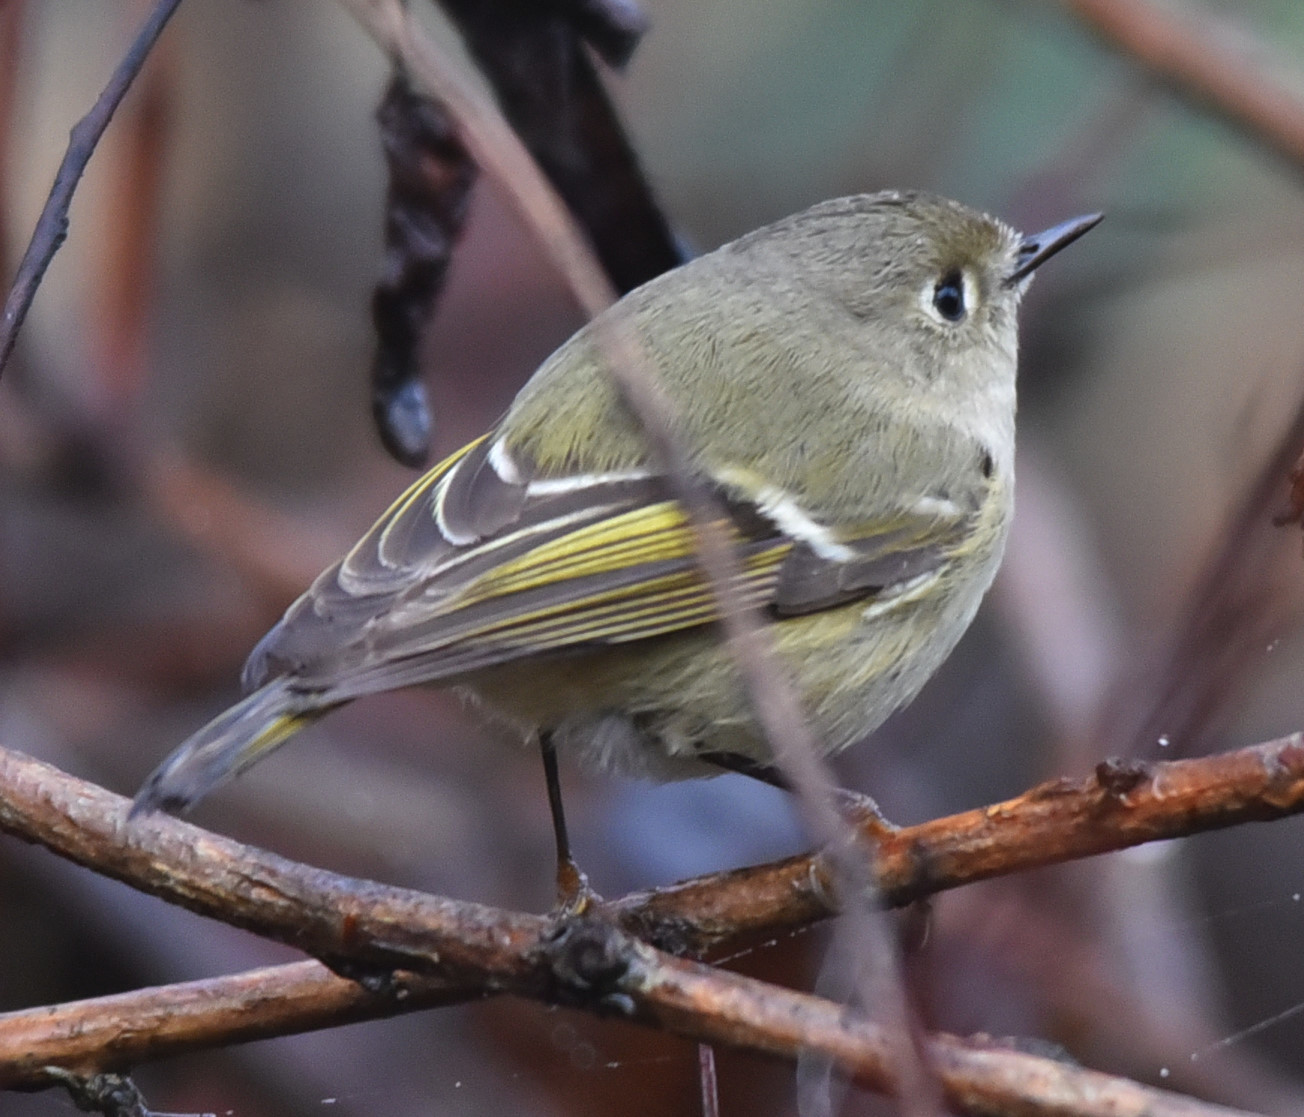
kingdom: Animalia
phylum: Chordata
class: Aves
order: Passeriformes
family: Regulidae
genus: Regulus
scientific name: Regulus calendula
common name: Ruby-crowned kinglet
